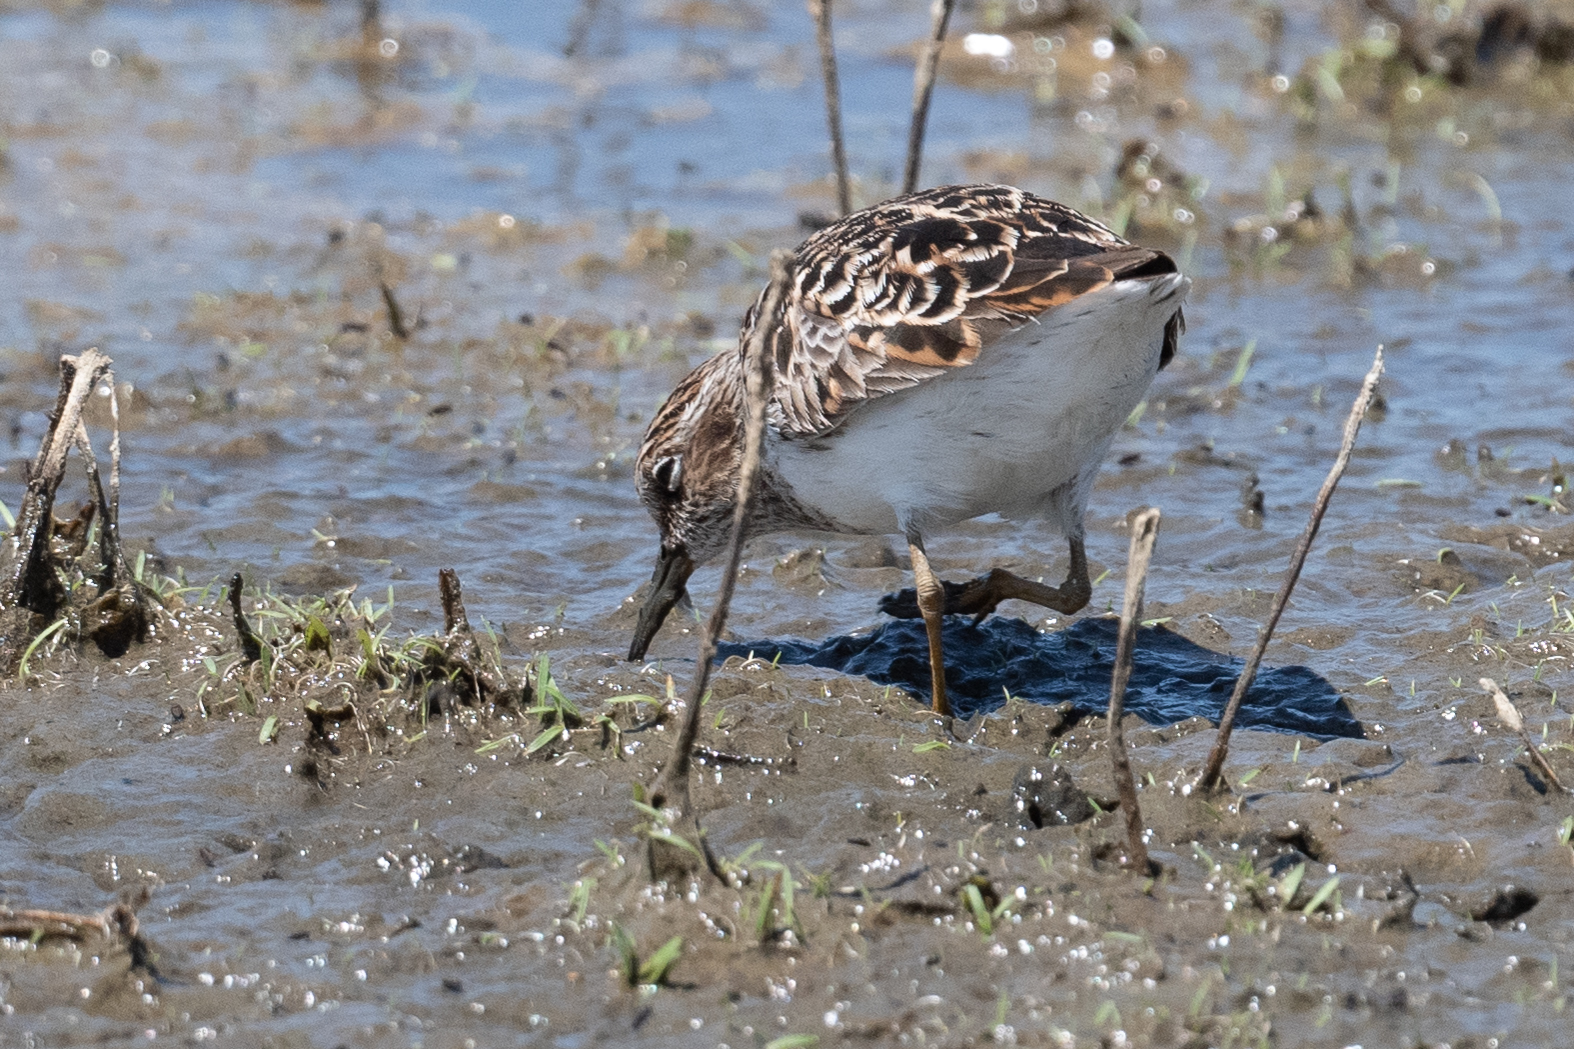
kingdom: Animalia
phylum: Chordata
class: Aves
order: Charadriiformes
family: Scolopacidae
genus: Calidris
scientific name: Calidris minutilla
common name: Least sandpiper
